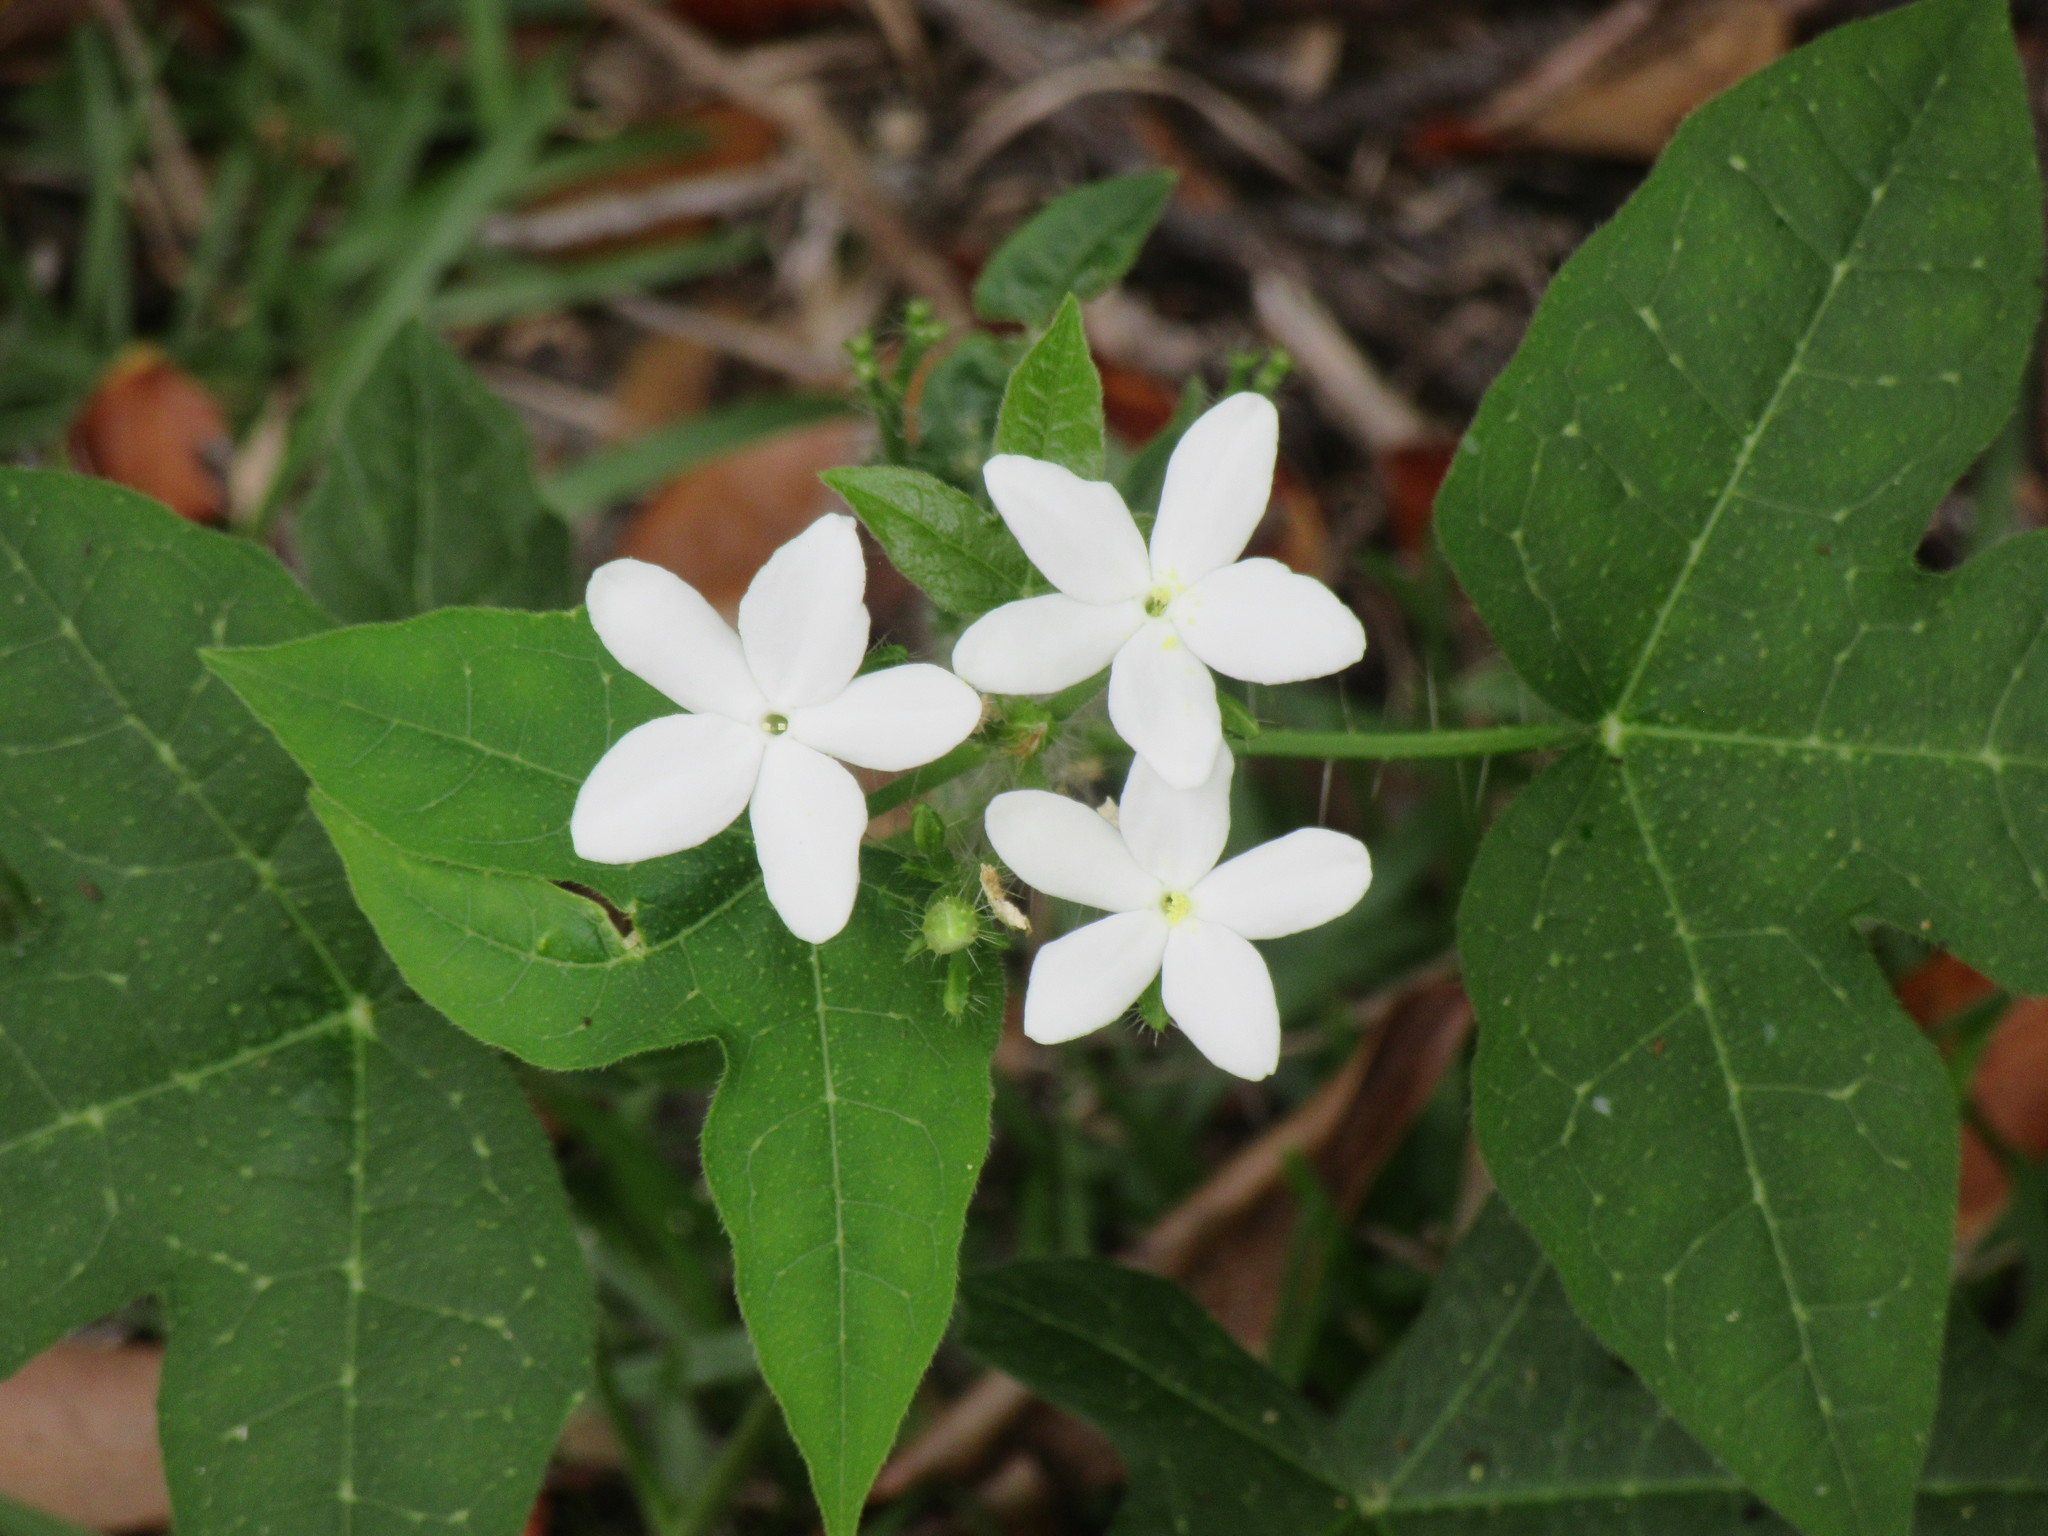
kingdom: Plantae
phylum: Tracheophyta
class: Magnoliopsida
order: Malpighiales
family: Euphorbiaceae
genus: Cnidoscolus
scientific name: Cnidoscolus stimulosus
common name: Bull-nettle
